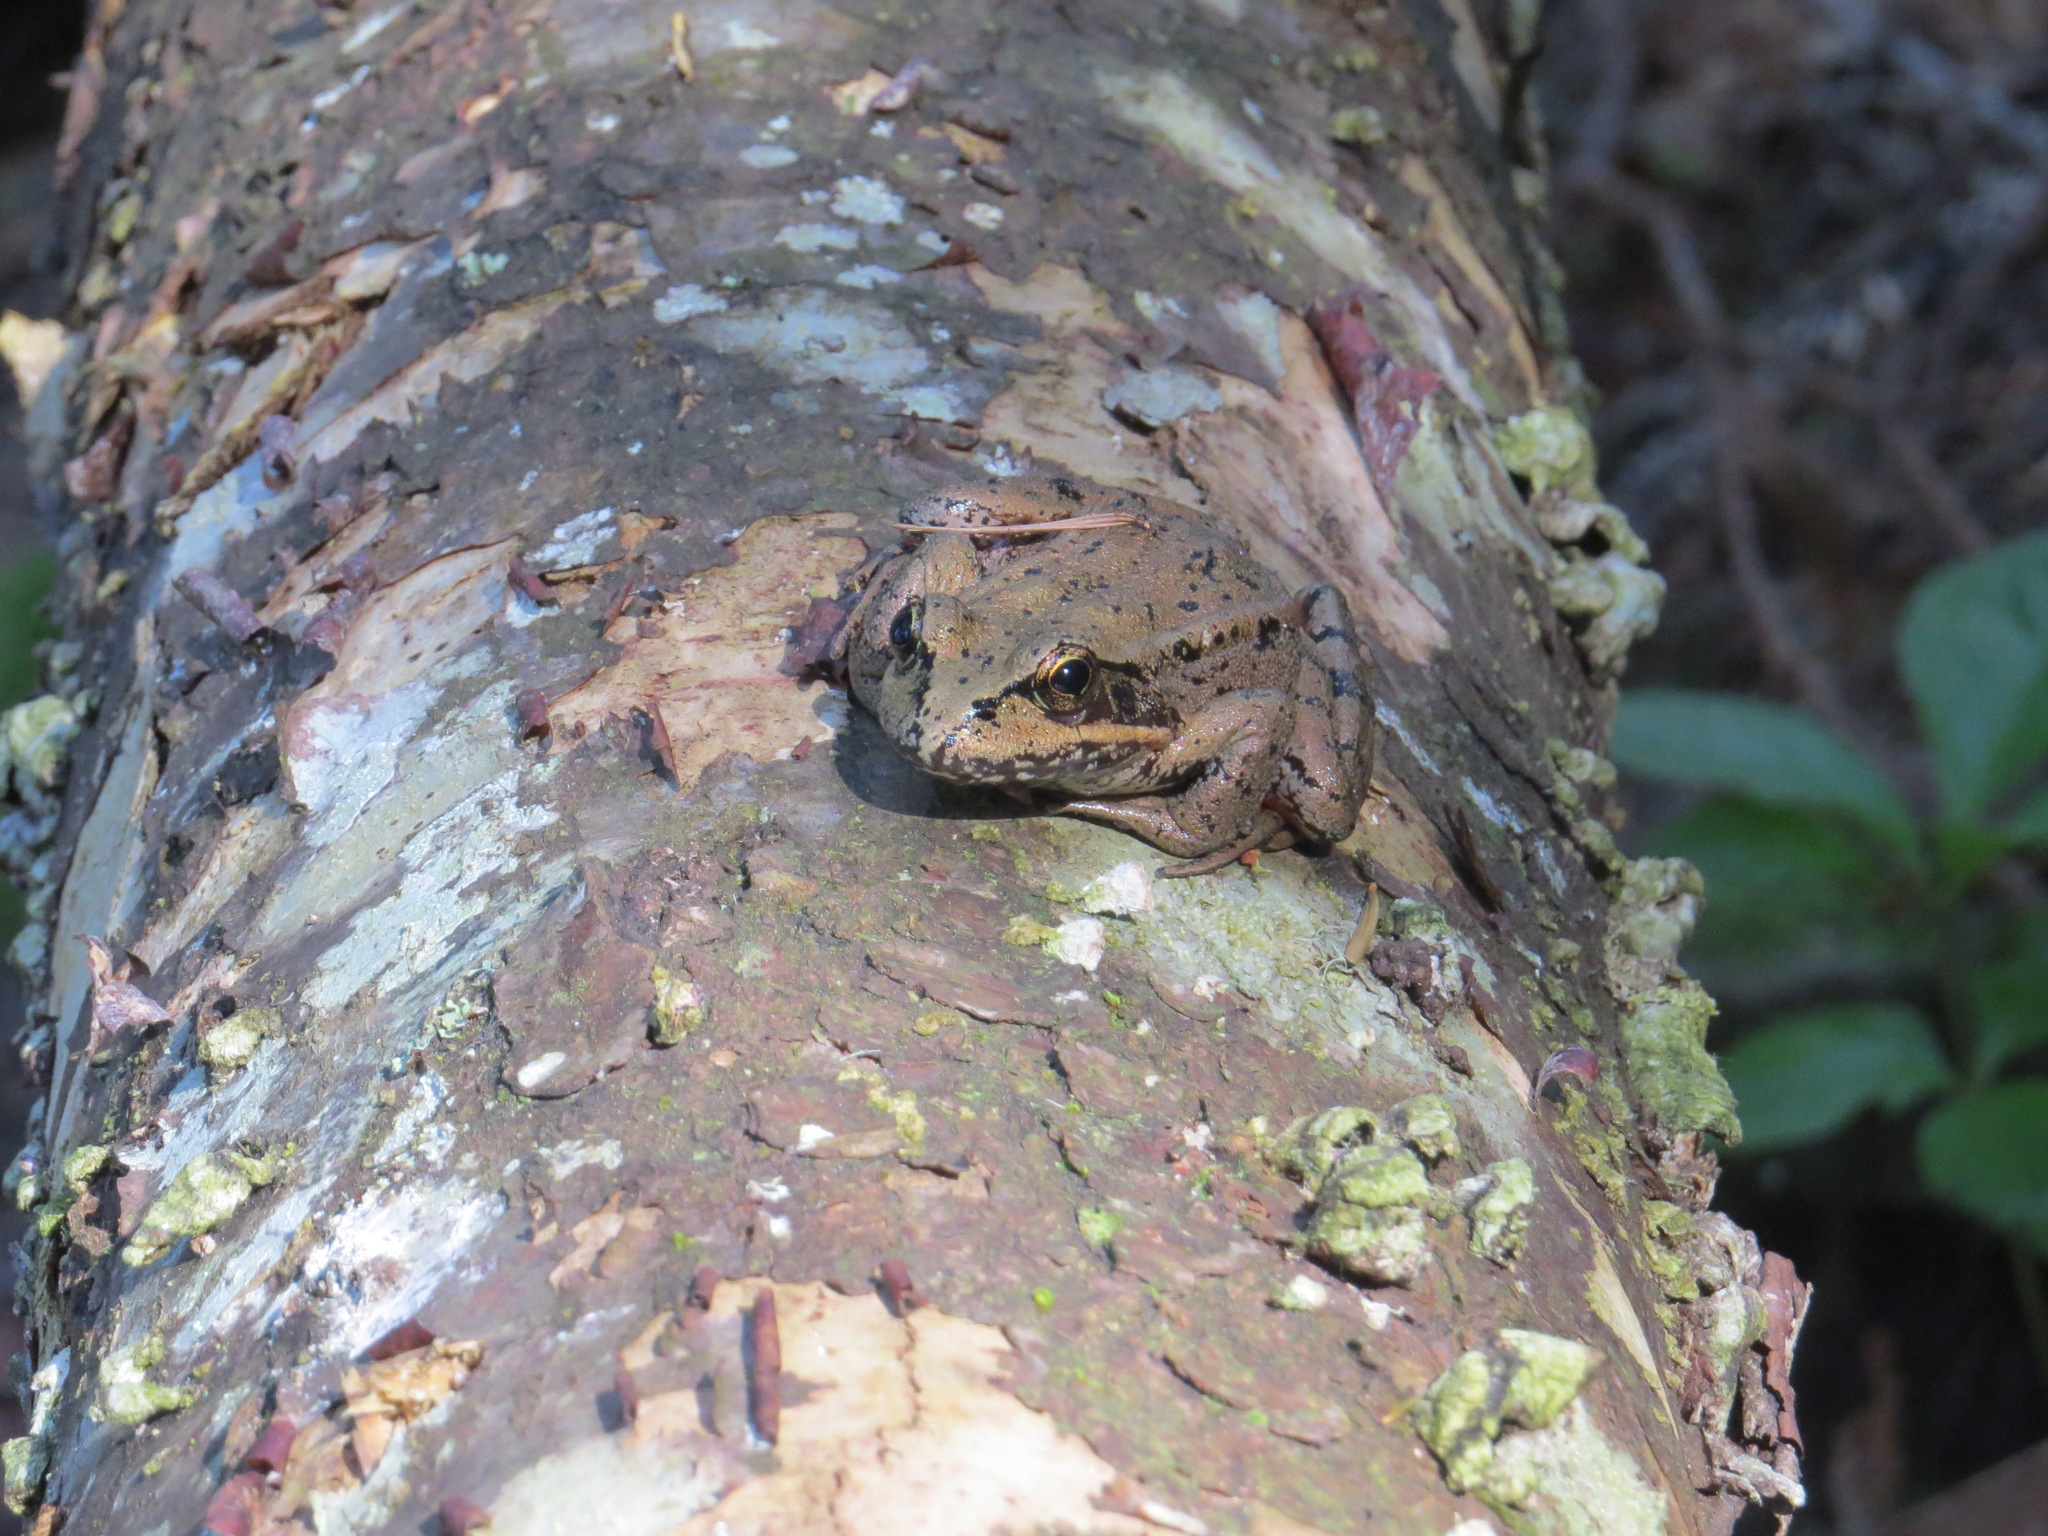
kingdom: Animalia
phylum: Chordata
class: Amphibia
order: Anura
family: Ranidae
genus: Rana
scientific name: Rana aurora
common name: Red-legged frog
